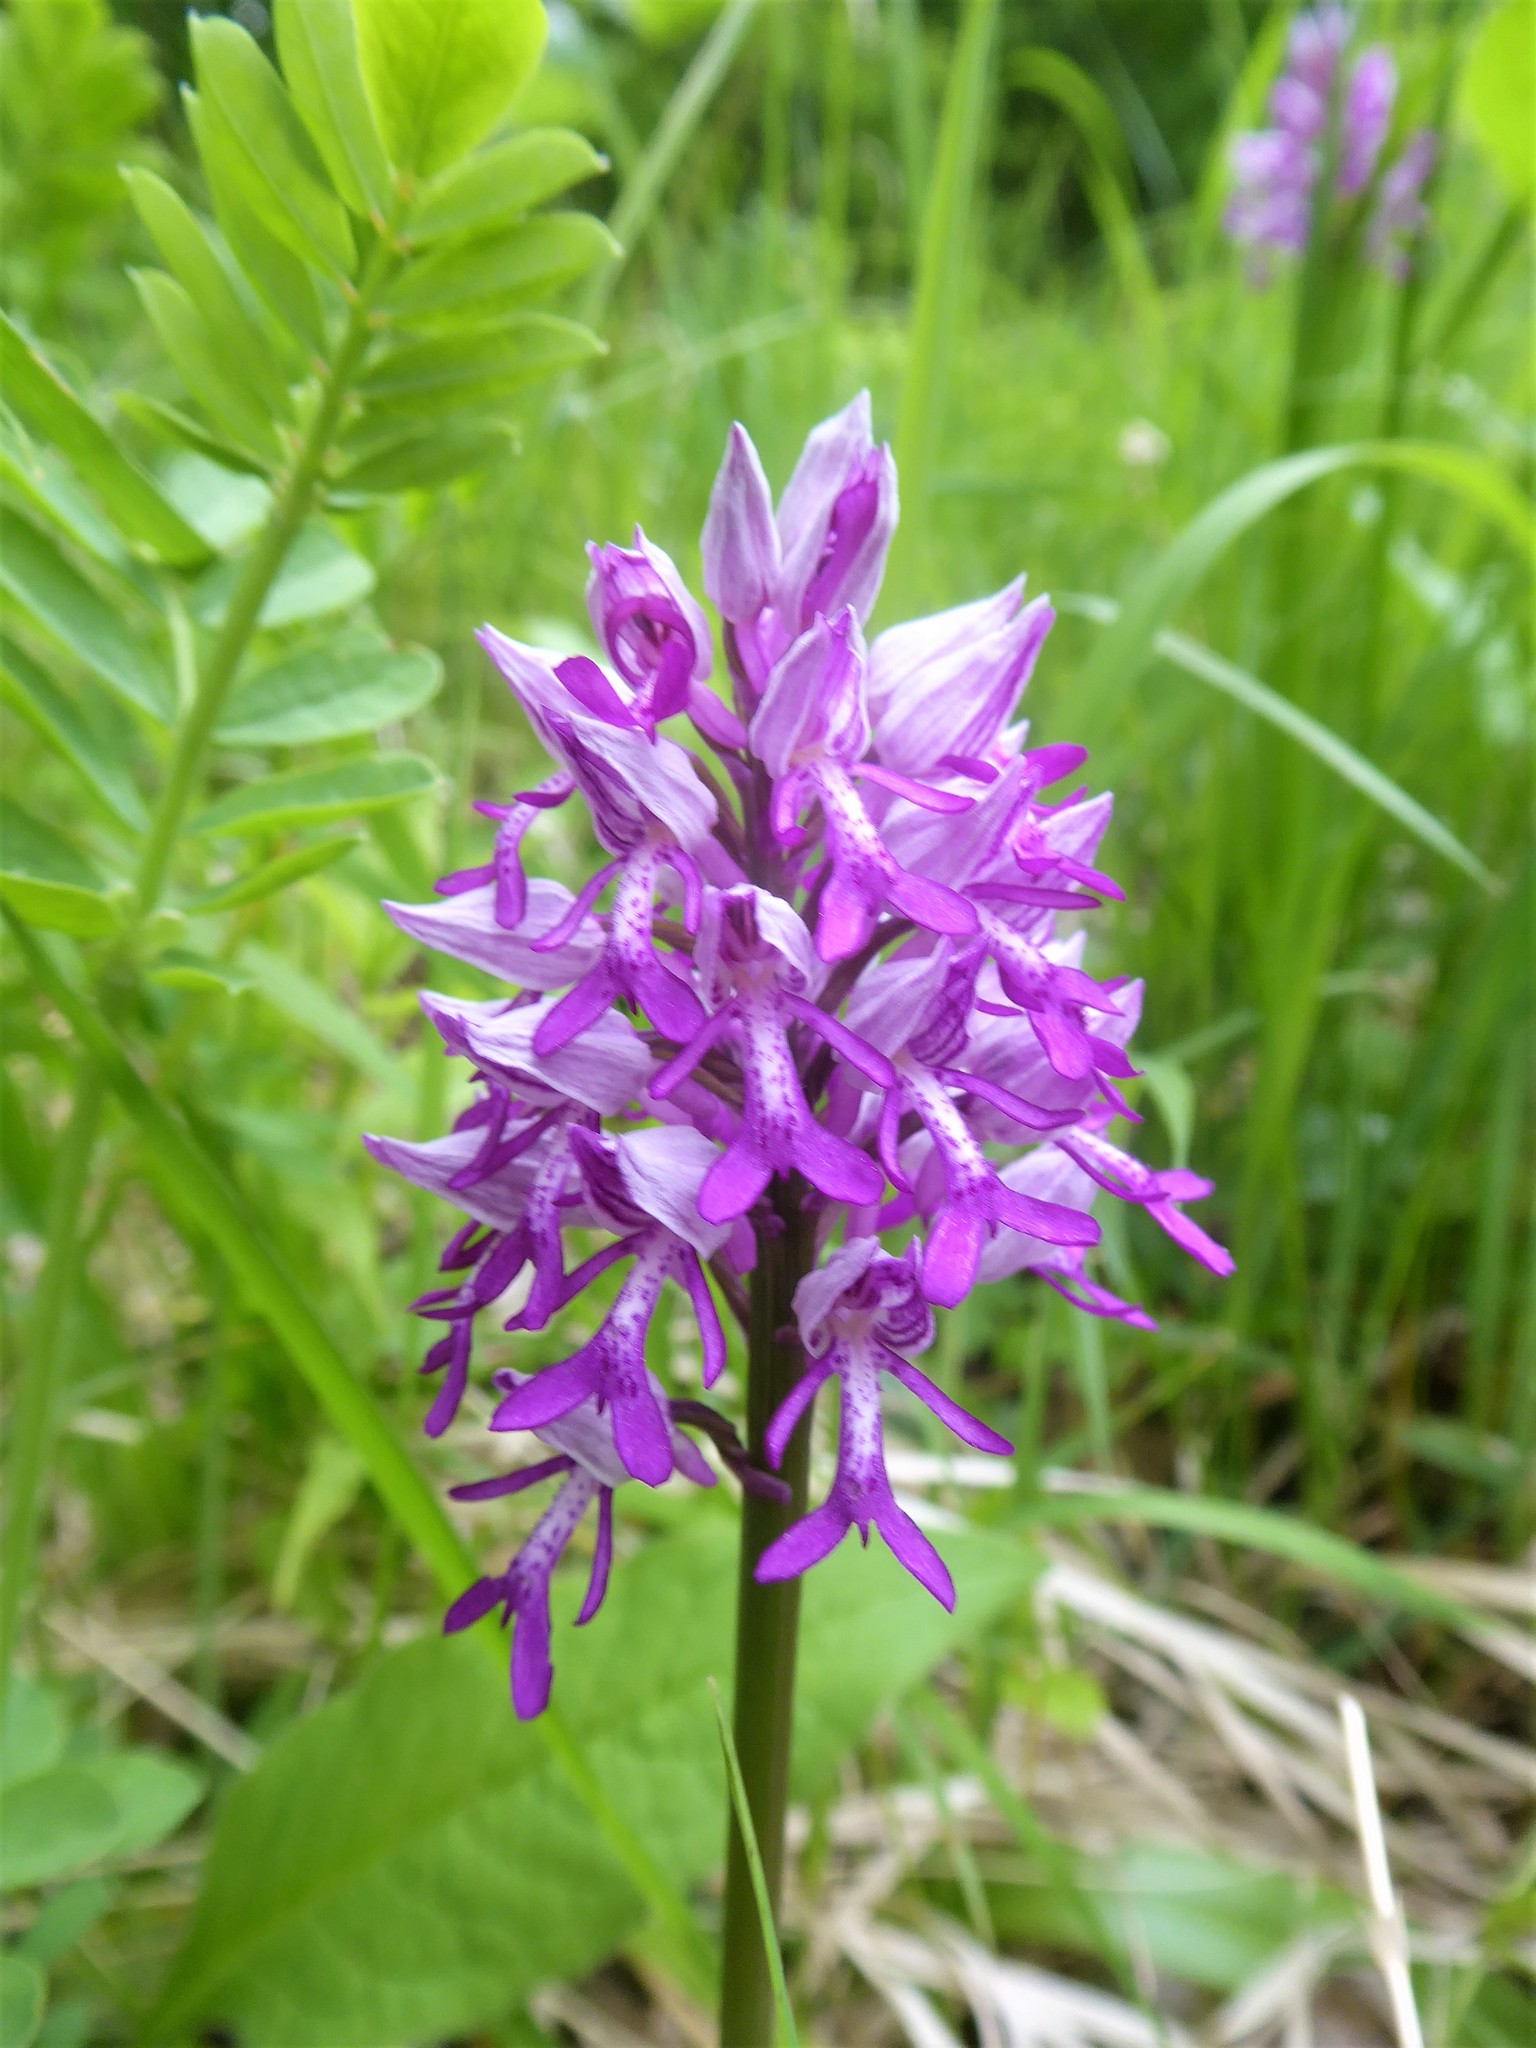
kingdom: Plantae
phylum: Tracheophyta
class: Liliopsida
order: Asparagales
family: Orchidaceae
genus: Orchis
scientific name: Orchis militaris
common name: Military orchid
